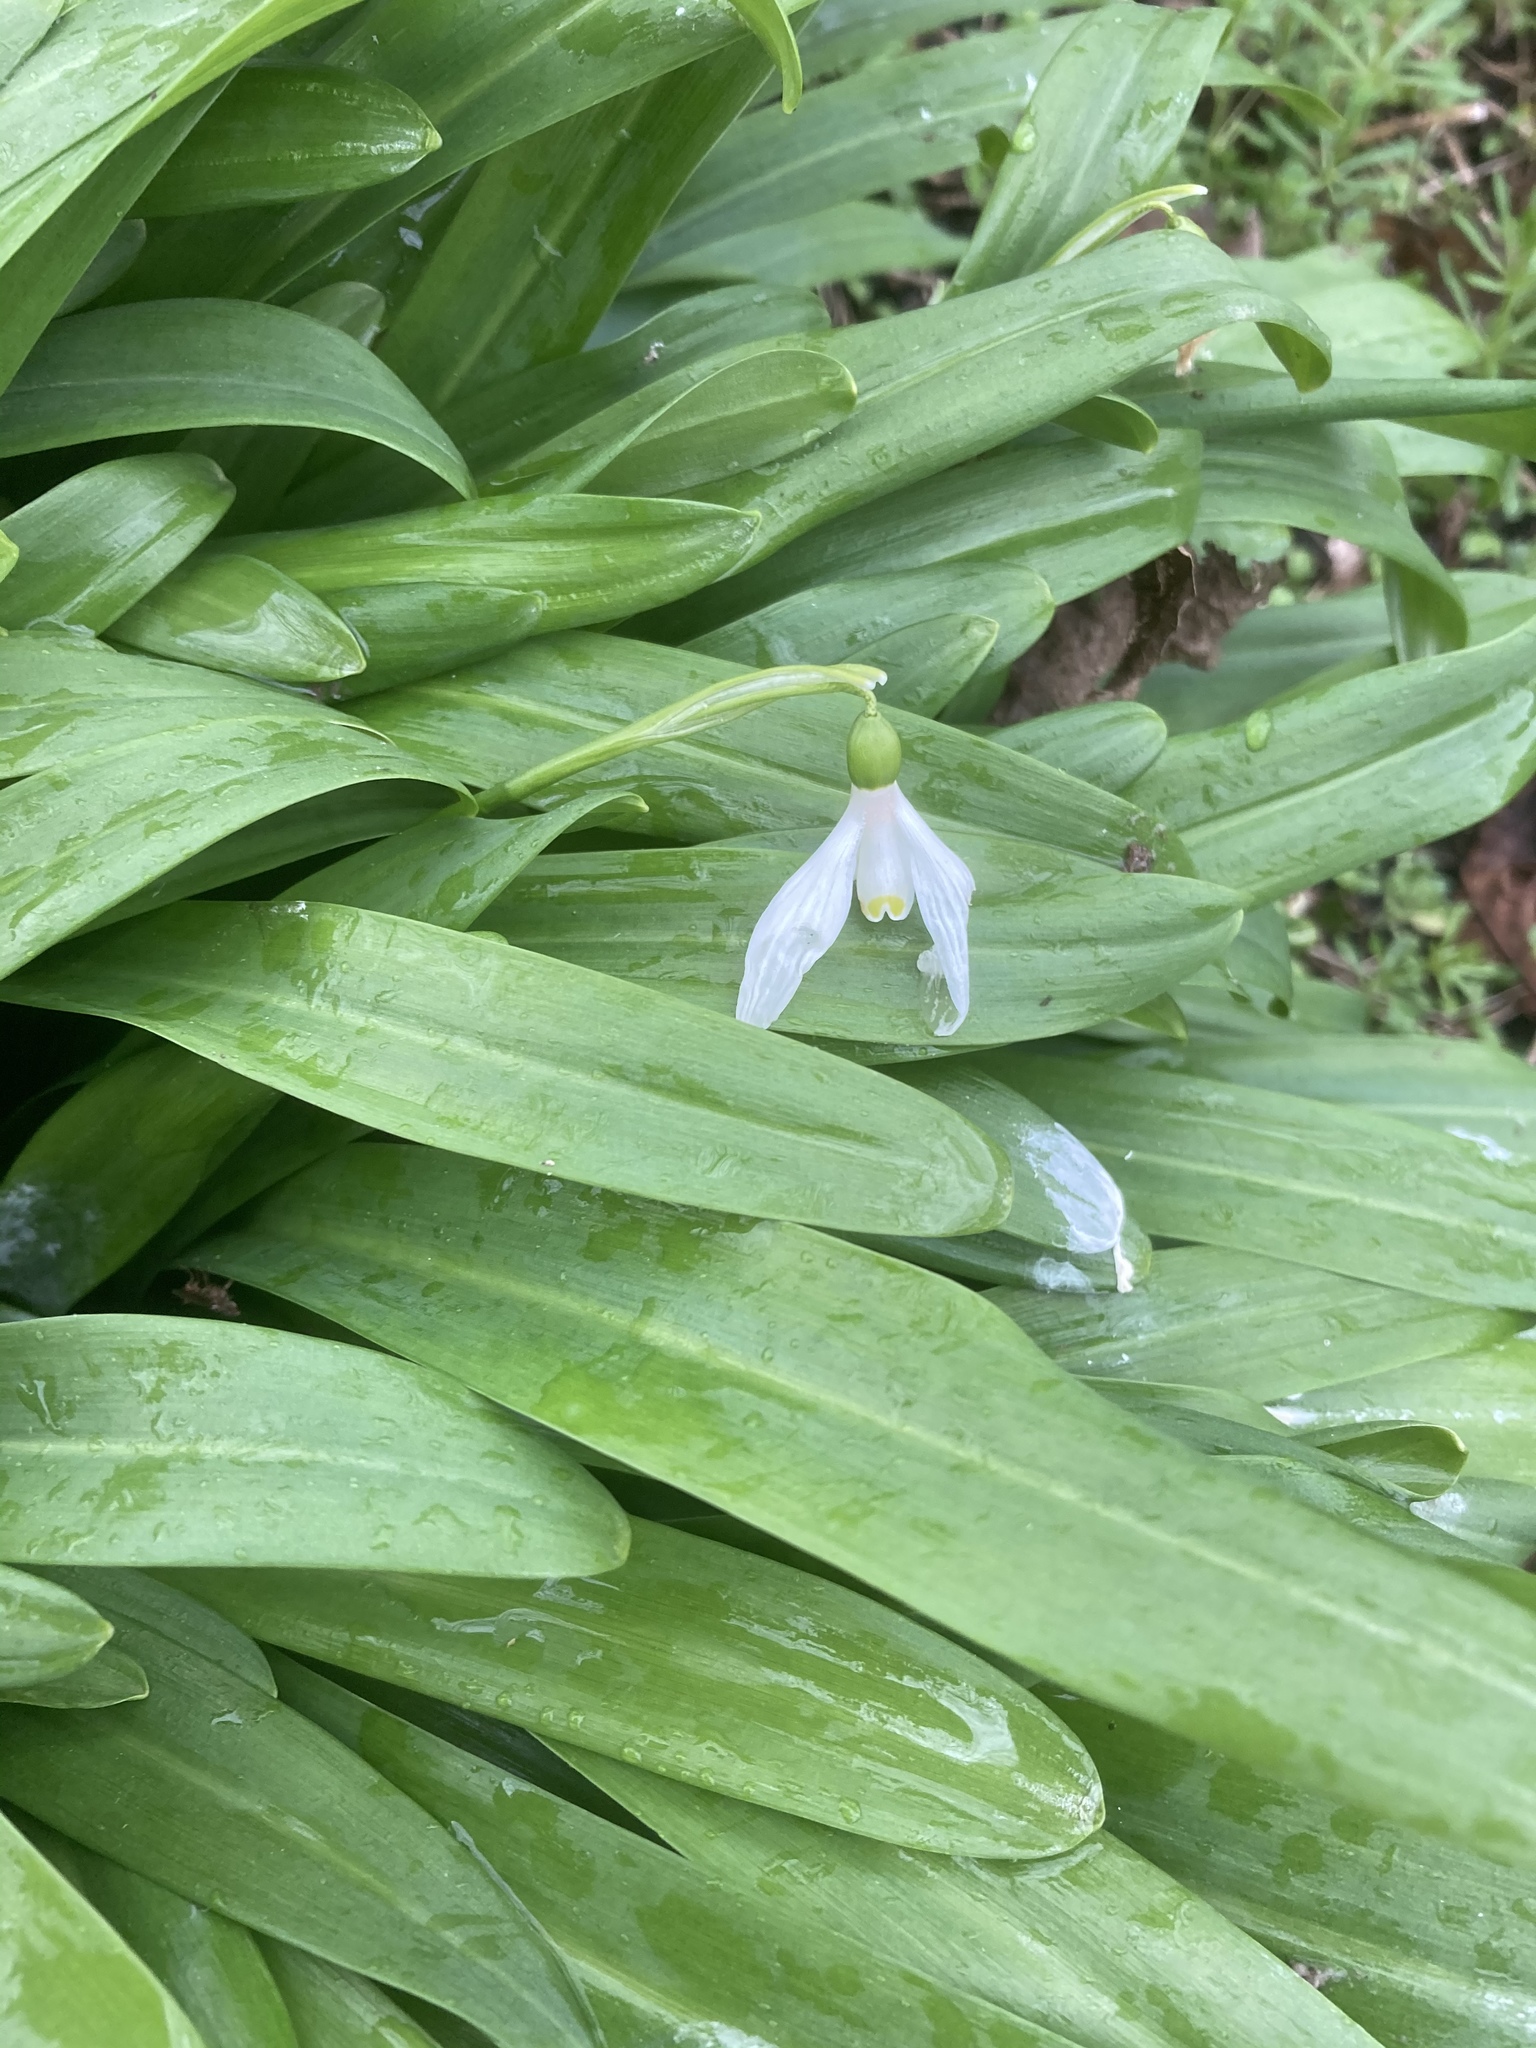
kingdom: Plantae
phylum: Tracheophyta
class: Liliopsida
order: Asparagales
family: Amaryllidaceae
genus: Galanthus
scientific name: Galanthus woronowii
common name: Green snowdrop
